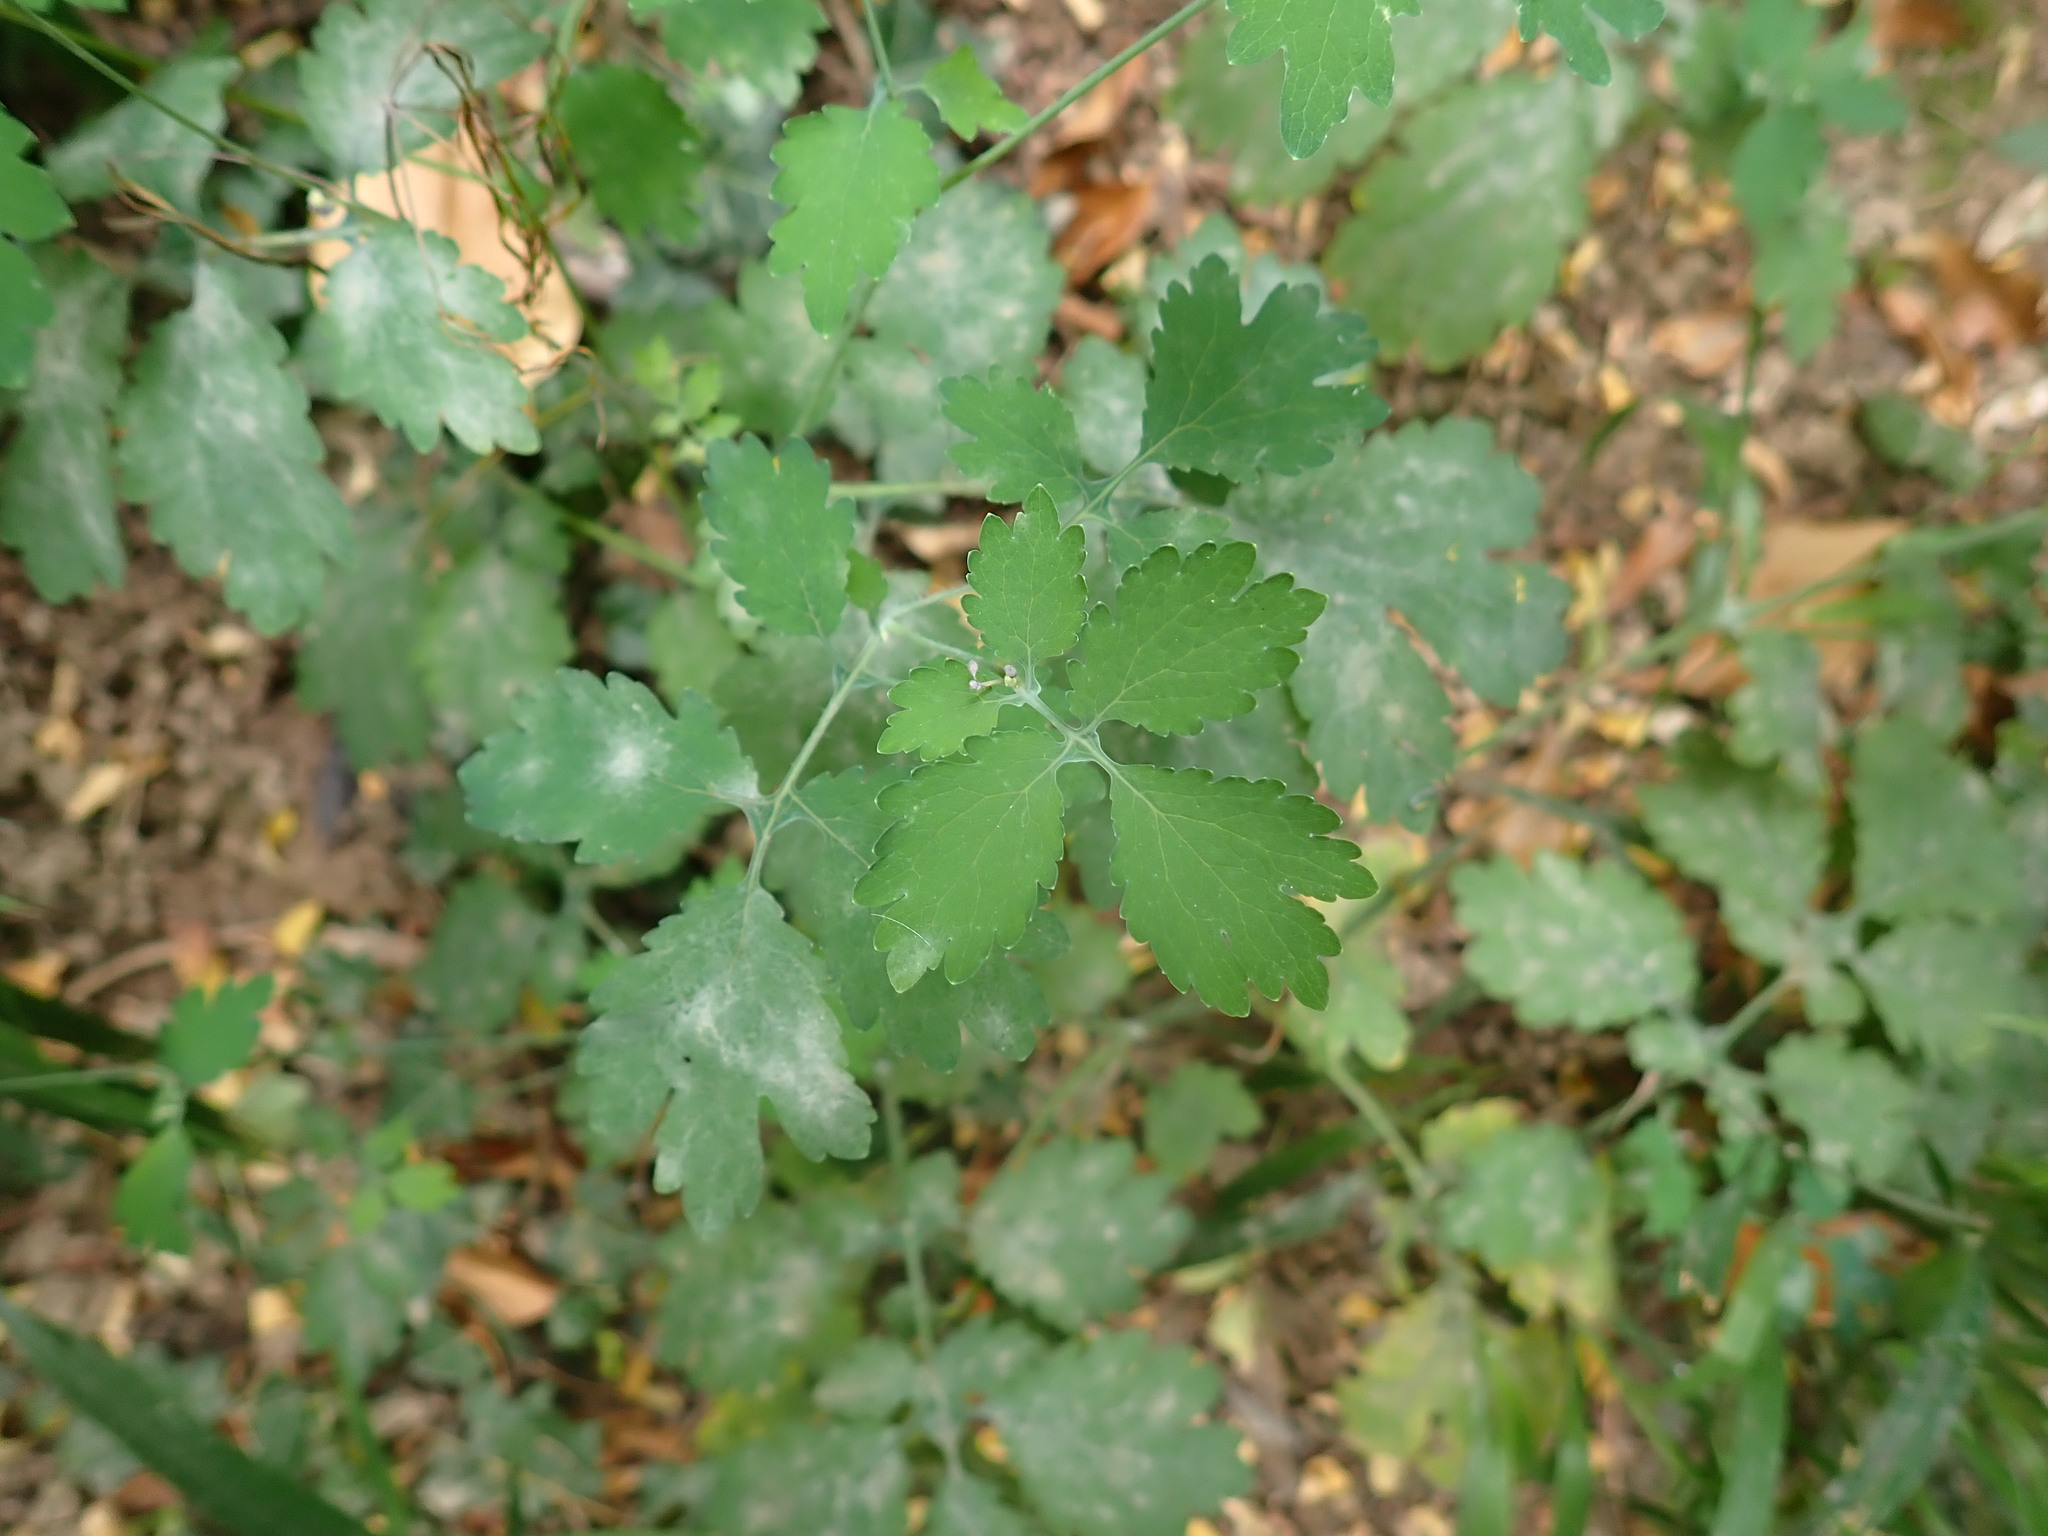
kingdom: Plantae
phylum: Tracheophyta
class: Magnoliopsida
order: Ranunculales
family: Papaveraceae
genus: Chelidonium
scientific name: Chelidonium majus
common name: Greater celandine
